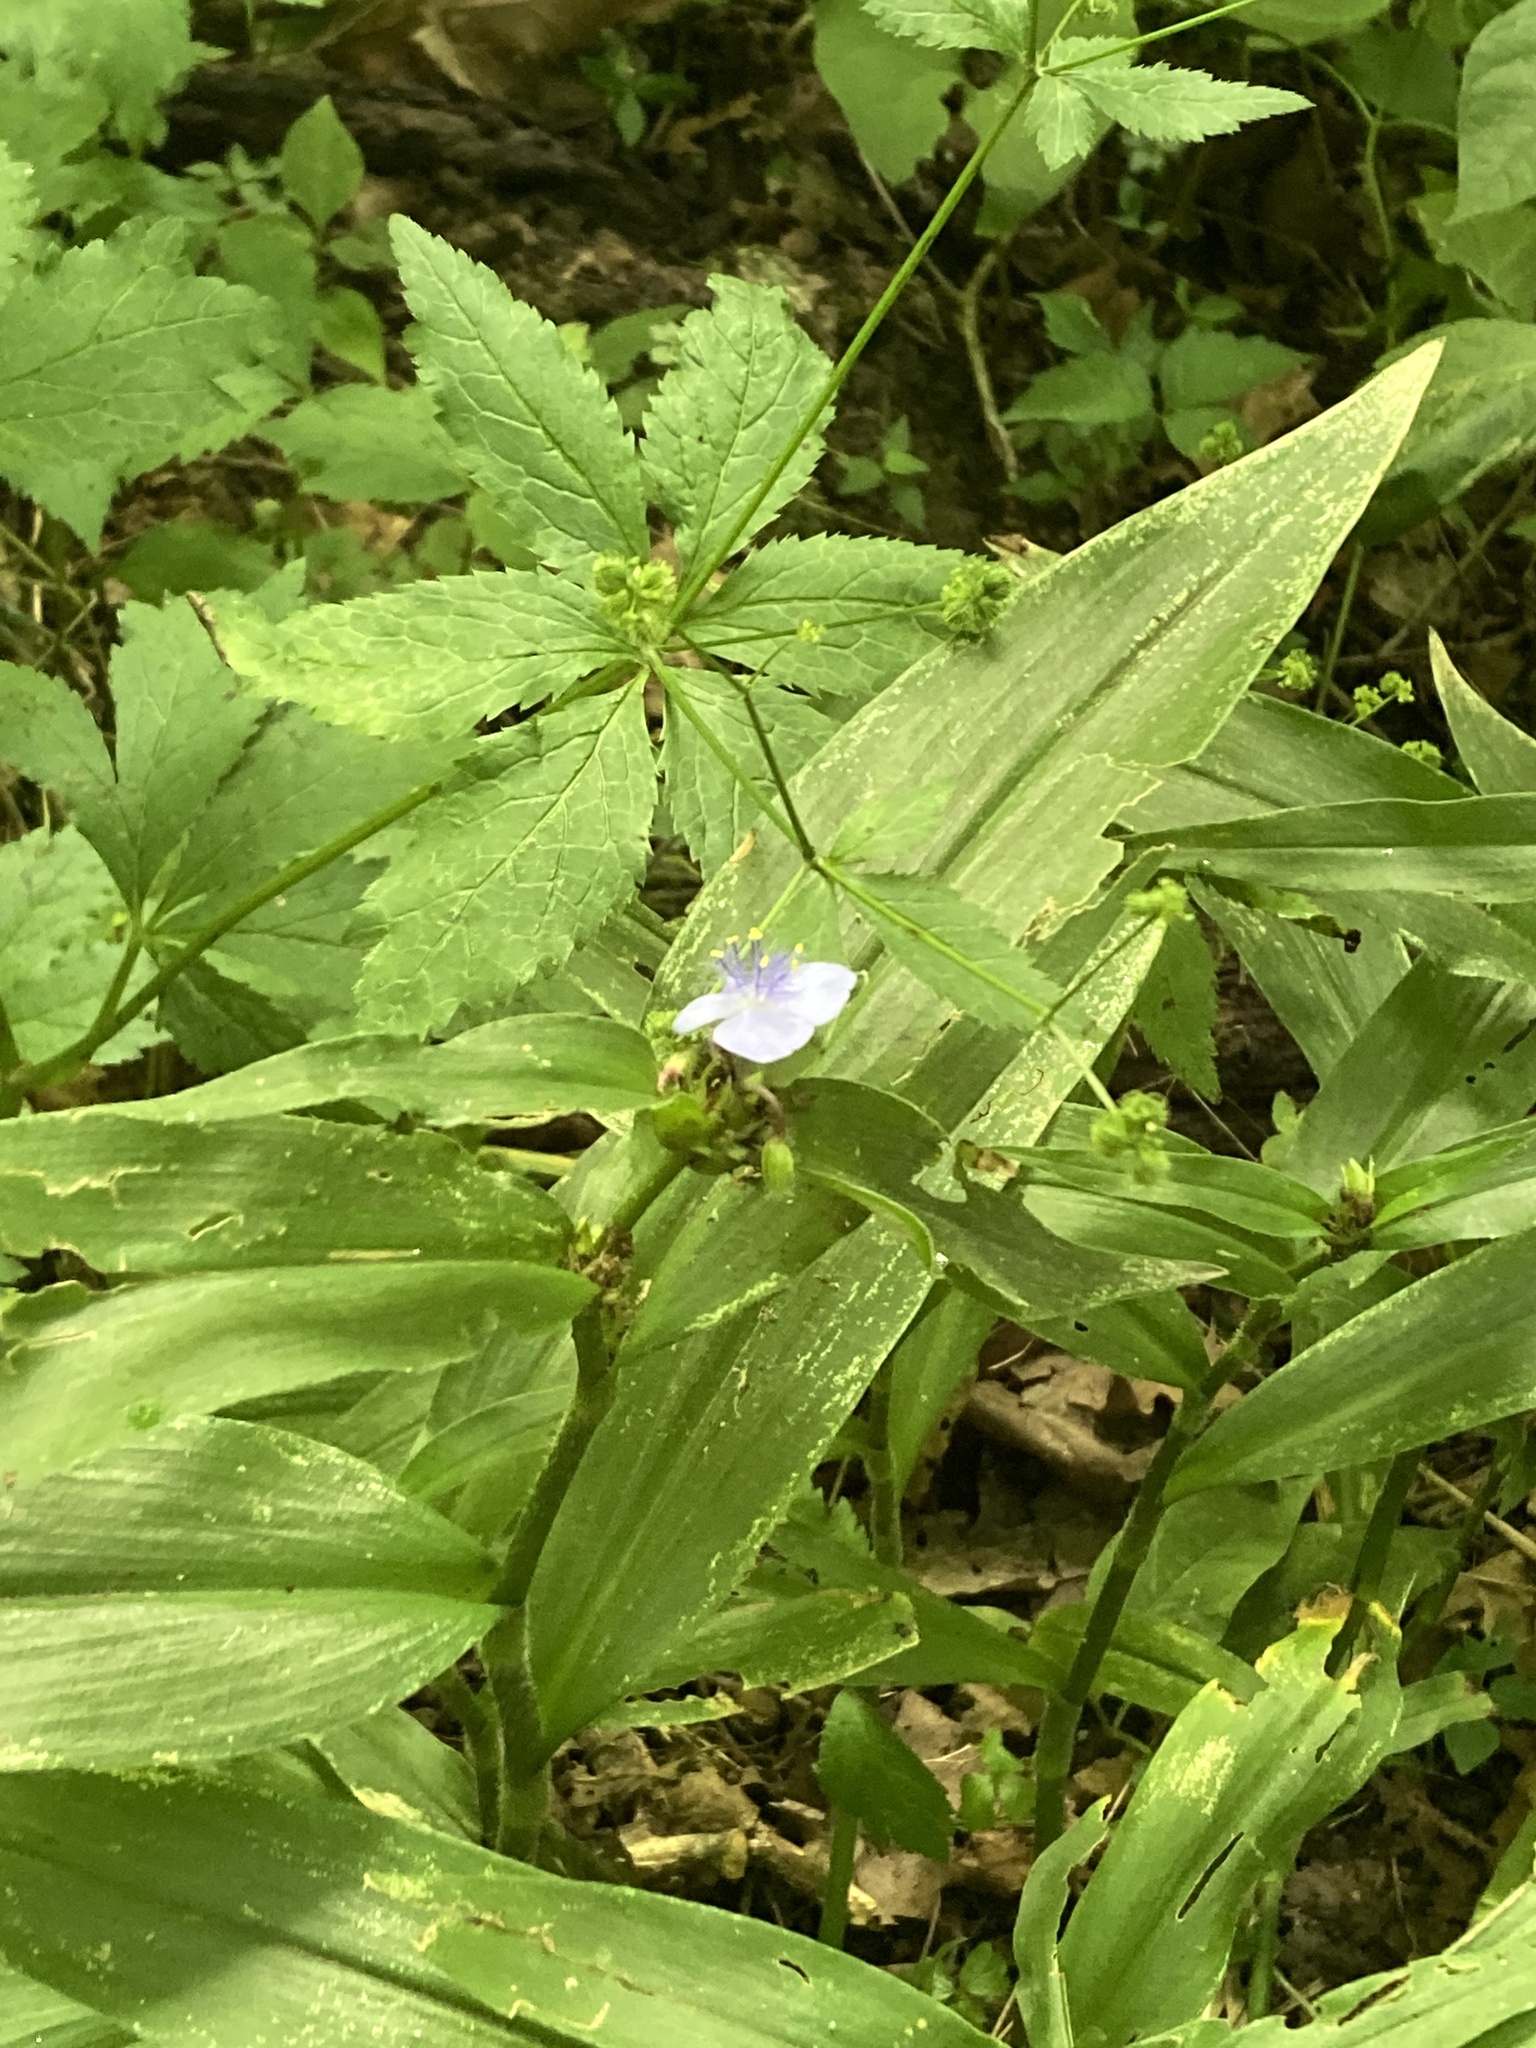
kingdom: Plantae
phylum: Tracheophyta
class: Liliopsida
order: Commelinales
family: Commelinaceae
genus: Tradescantia
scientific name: Tradescantia subaspera
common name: Wide-leaf spiderwort
